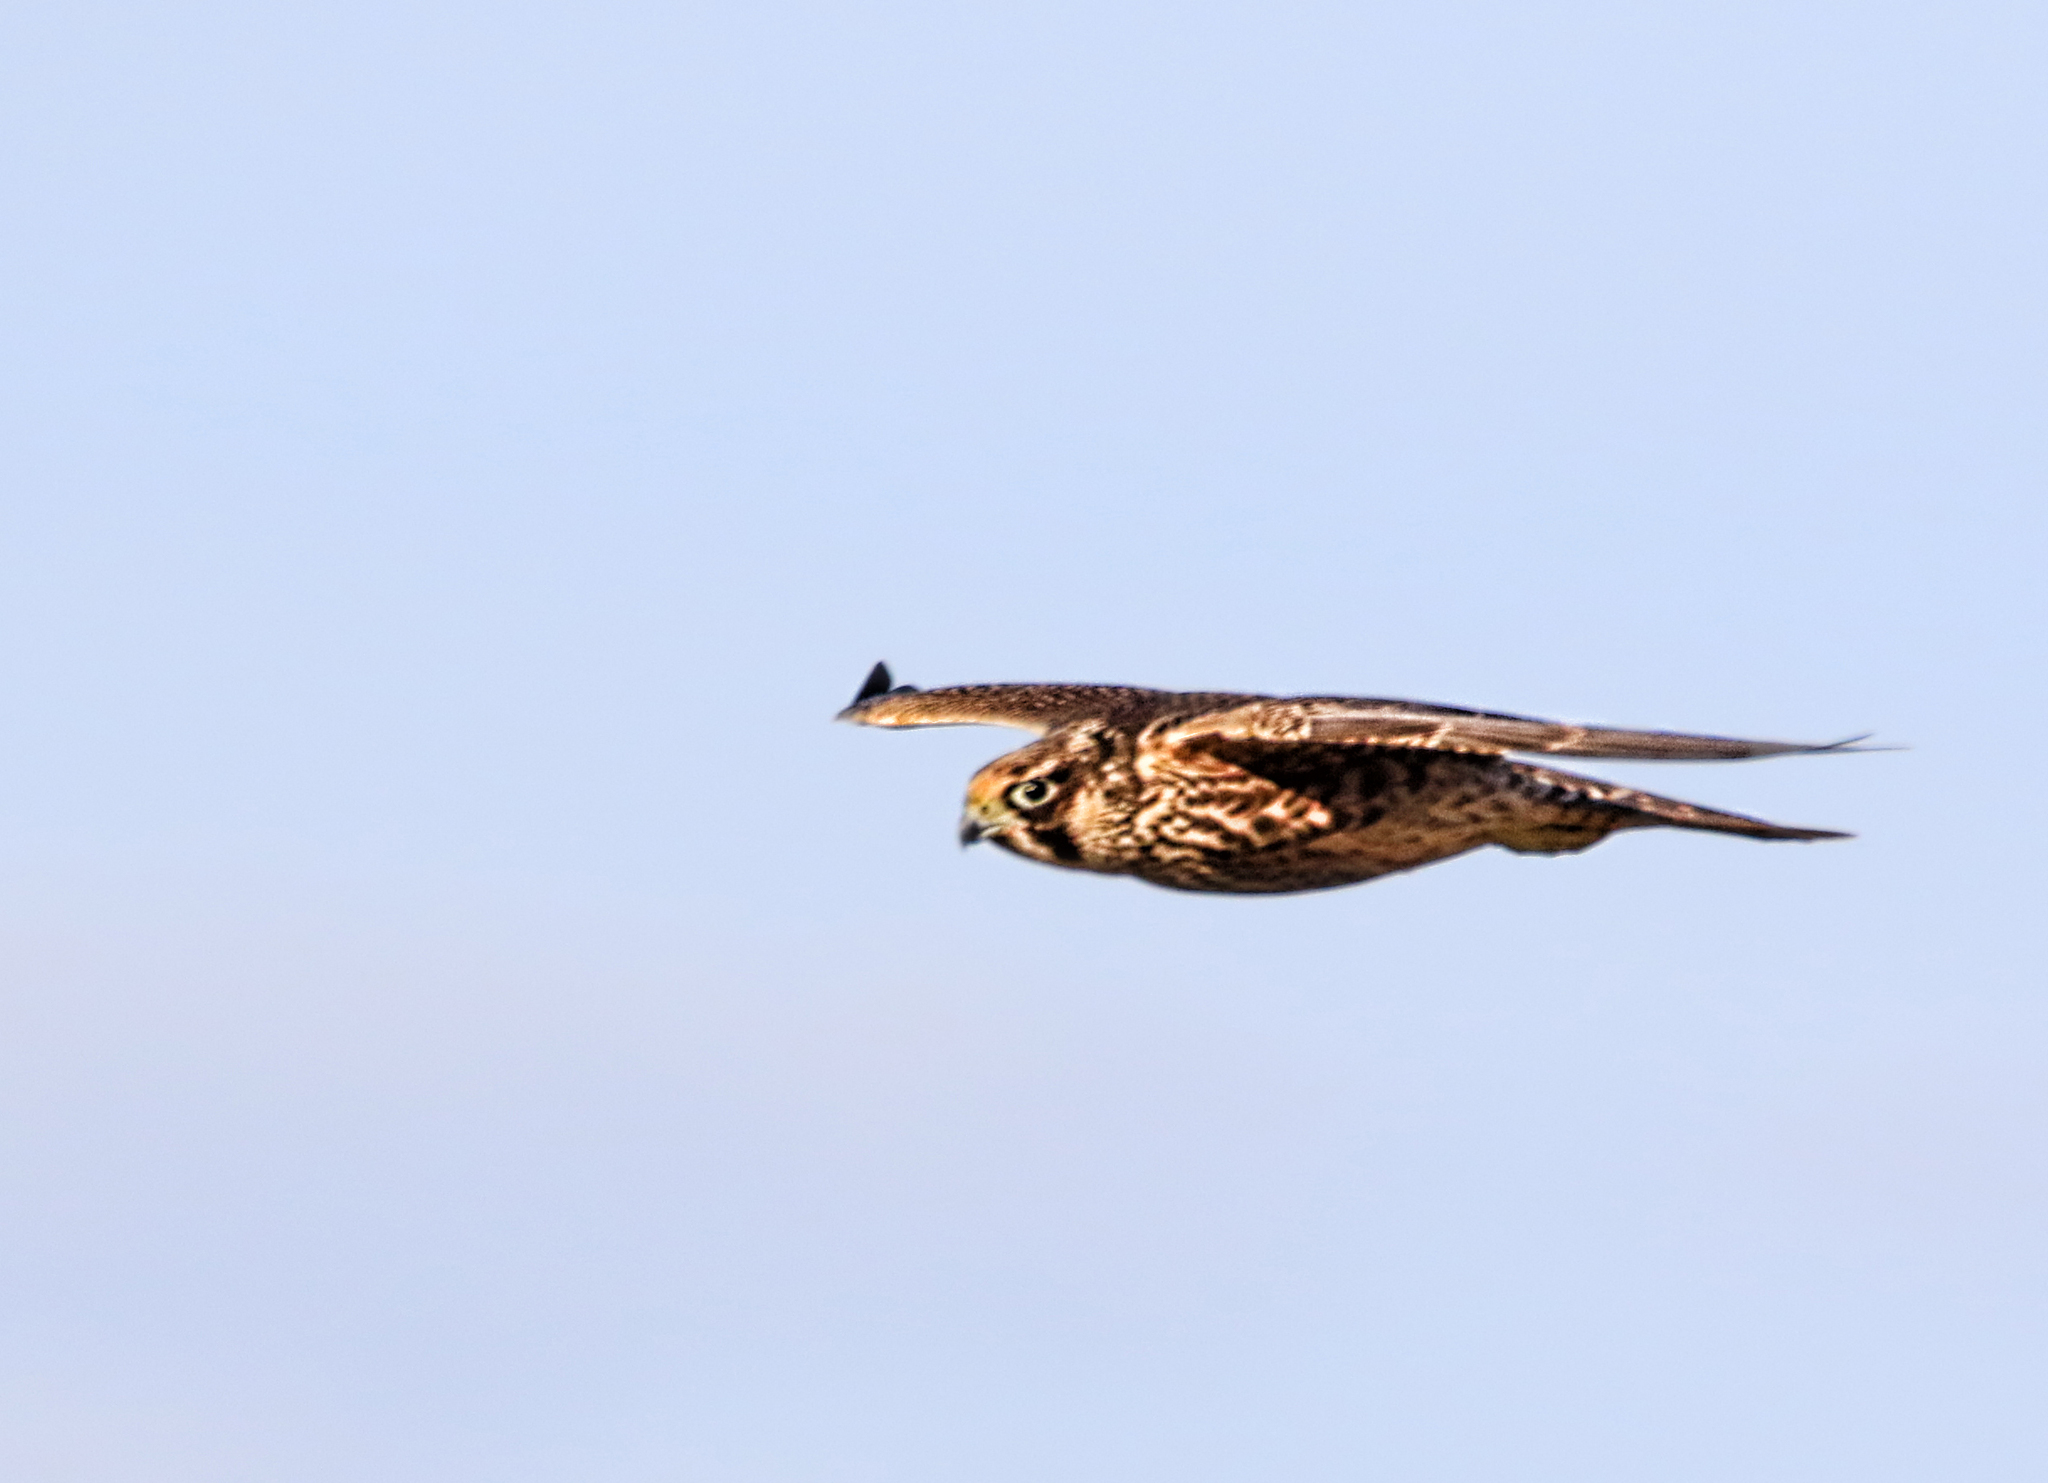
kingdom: Animalia
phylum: Chordata
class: Aves
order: Falconiformes
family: Falconidae
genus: Falco
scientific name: Falco peregrinus
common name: Peregrine falcon
